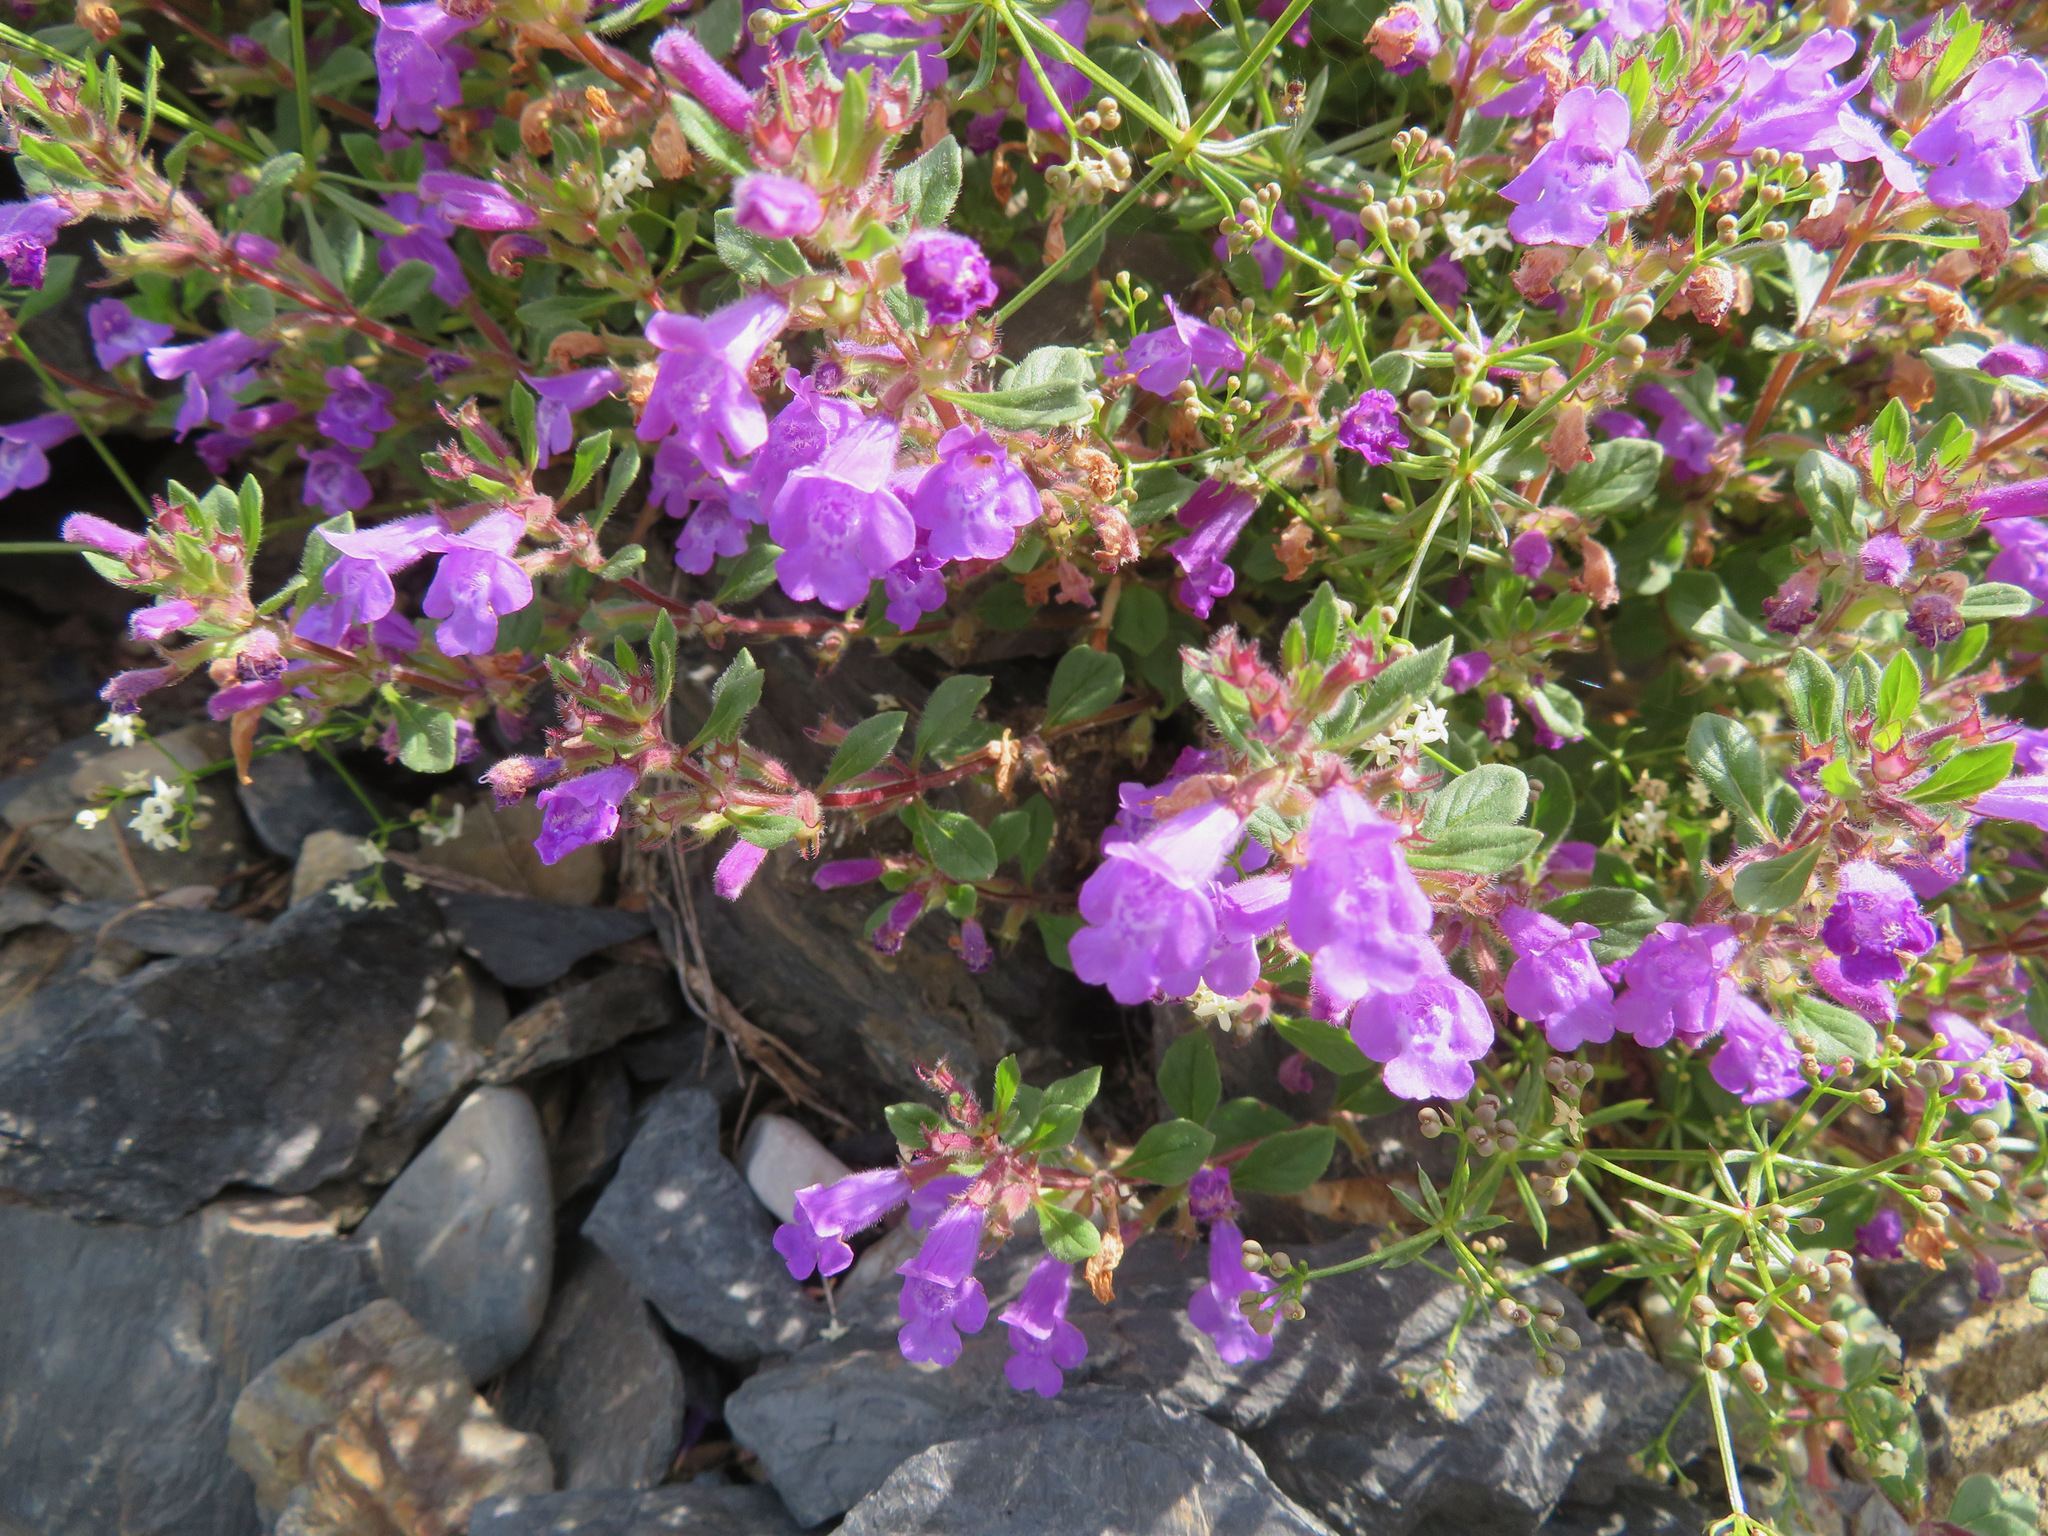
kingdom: Plantae
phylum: Tracheophyta
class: Magnoliopsida
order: Lamiales
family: Lamiaceae
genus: Clinopodium
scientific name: Clinopodium alpinum
